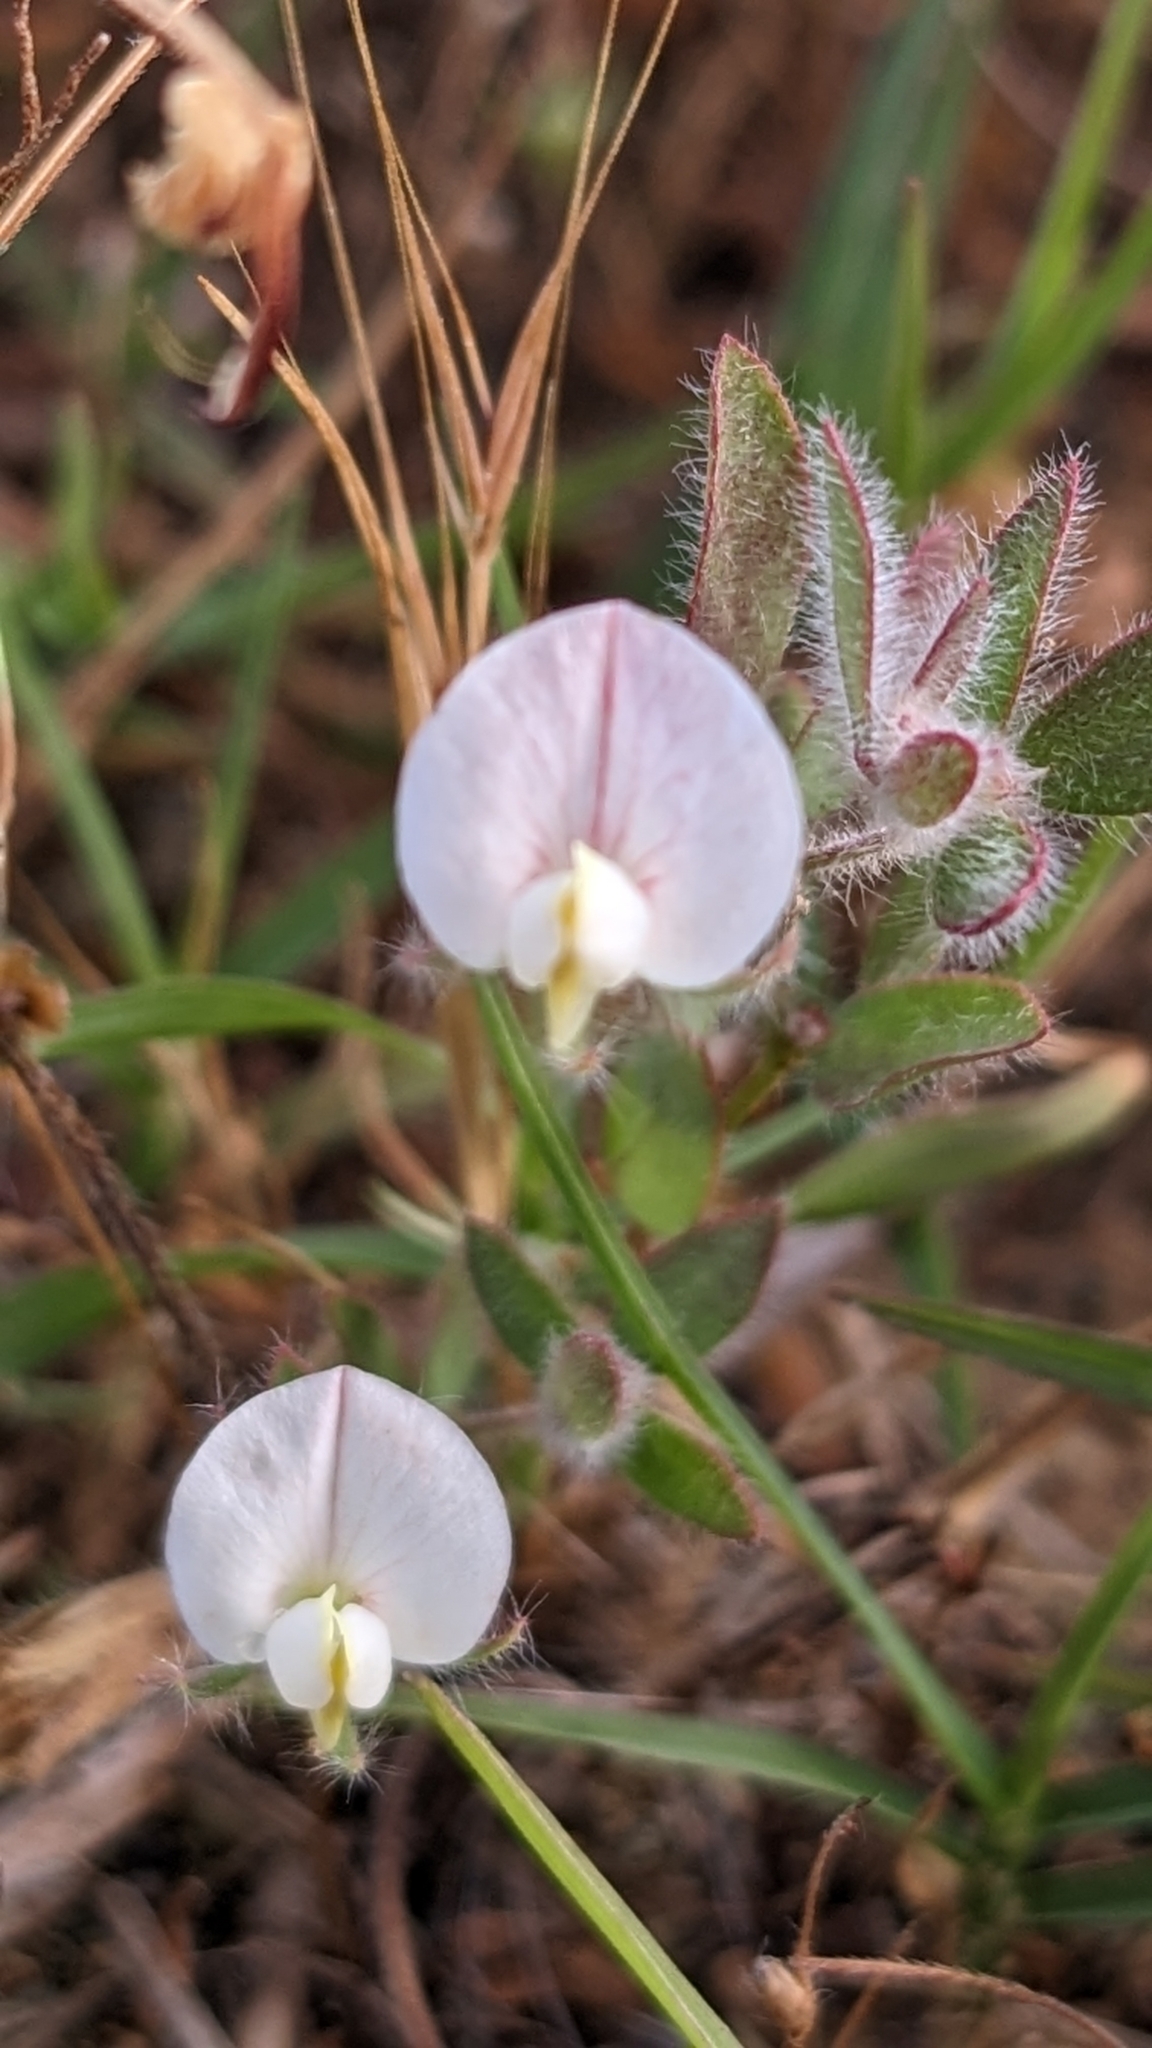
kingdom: Plantae
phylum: Tracheophyta
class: Magnoliopsida
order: Fabales
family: Fabaceae
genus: Acmispon
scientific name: Acmispon americanus
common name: American bird's-foot trefoil
